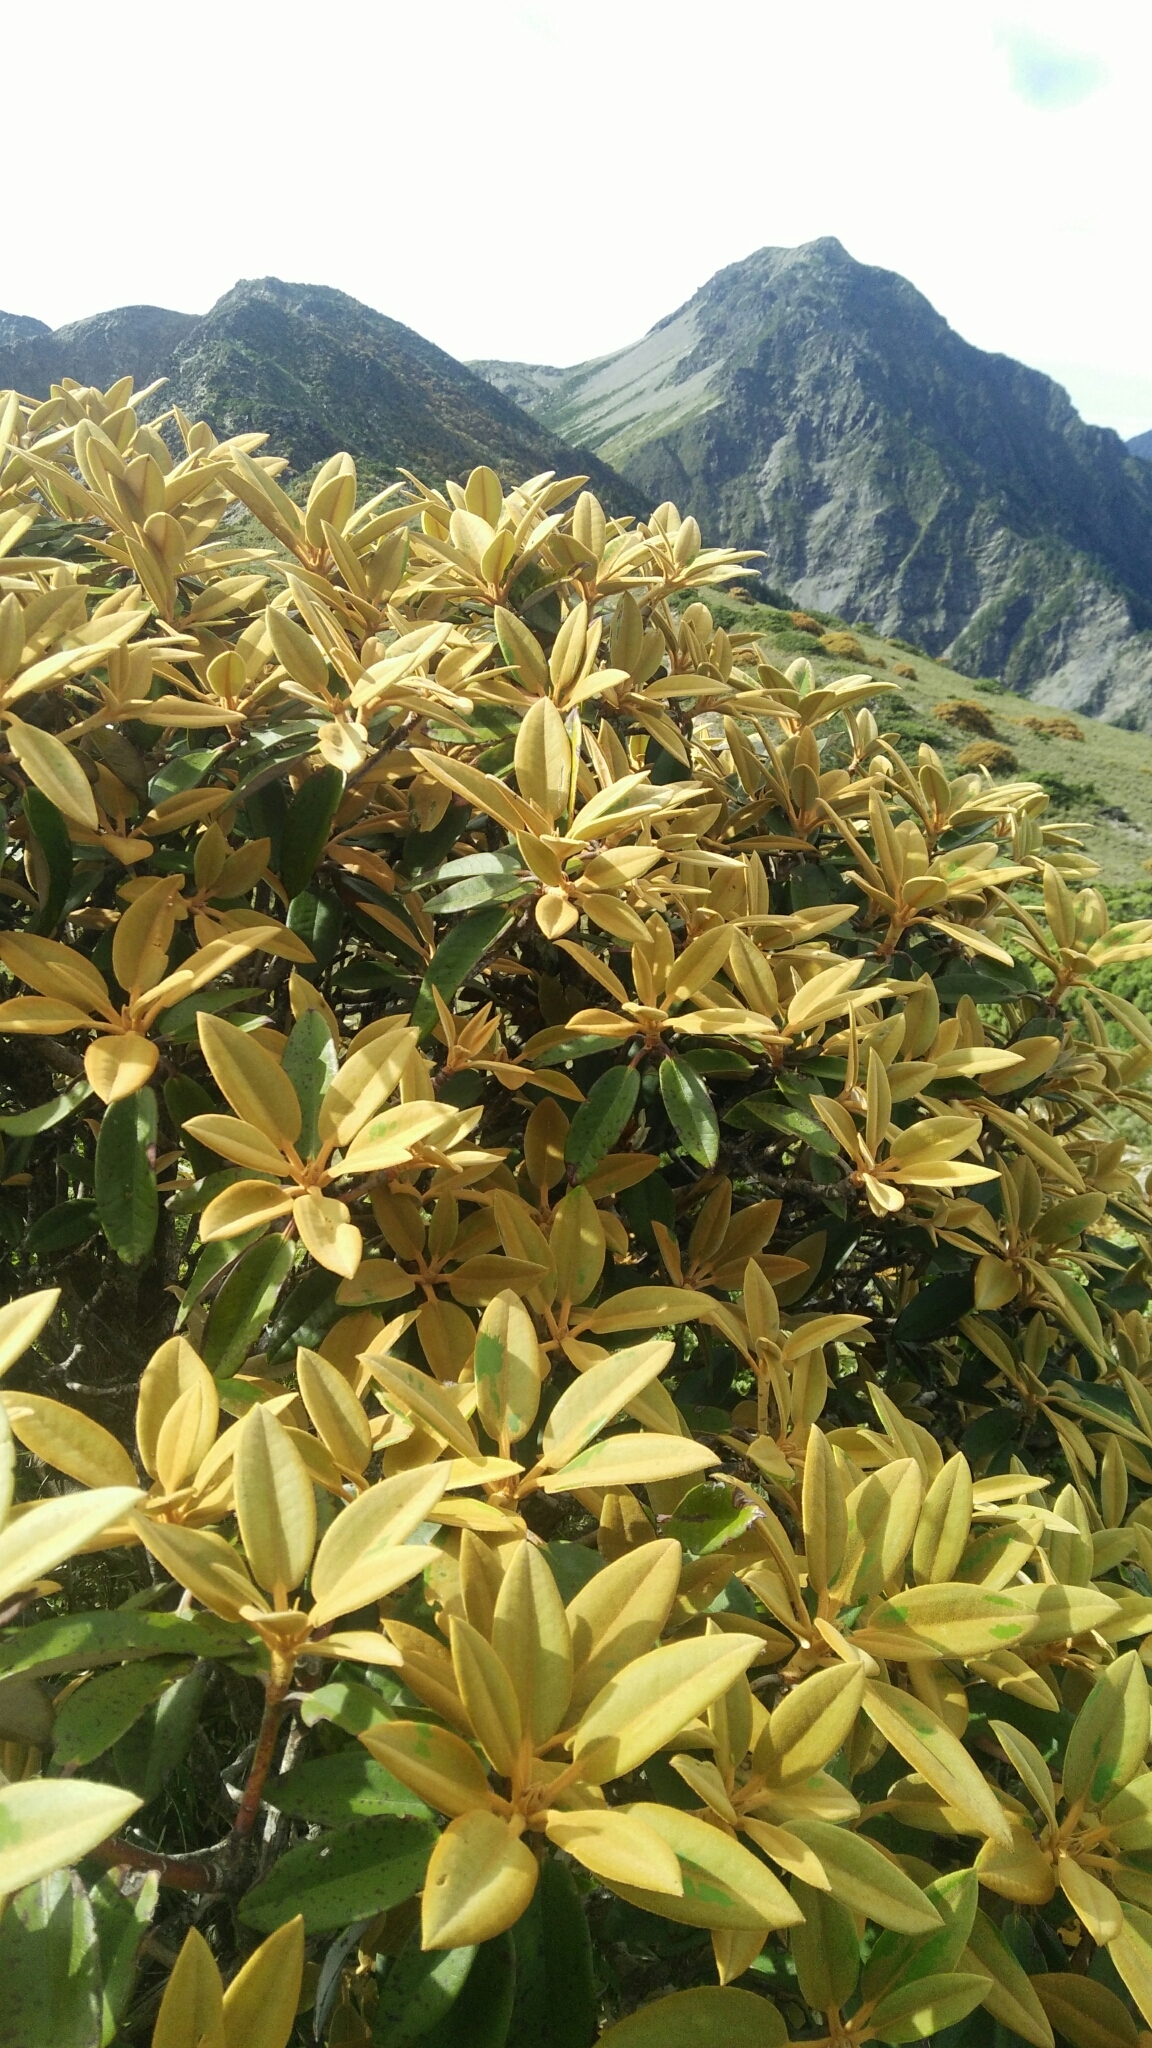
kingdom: Plantae
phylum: Tracheophyta
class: Magnoliopsida
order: Ericales
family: Ericaceae
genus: Rhododendron
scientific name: Rhododendron hyperythrum
